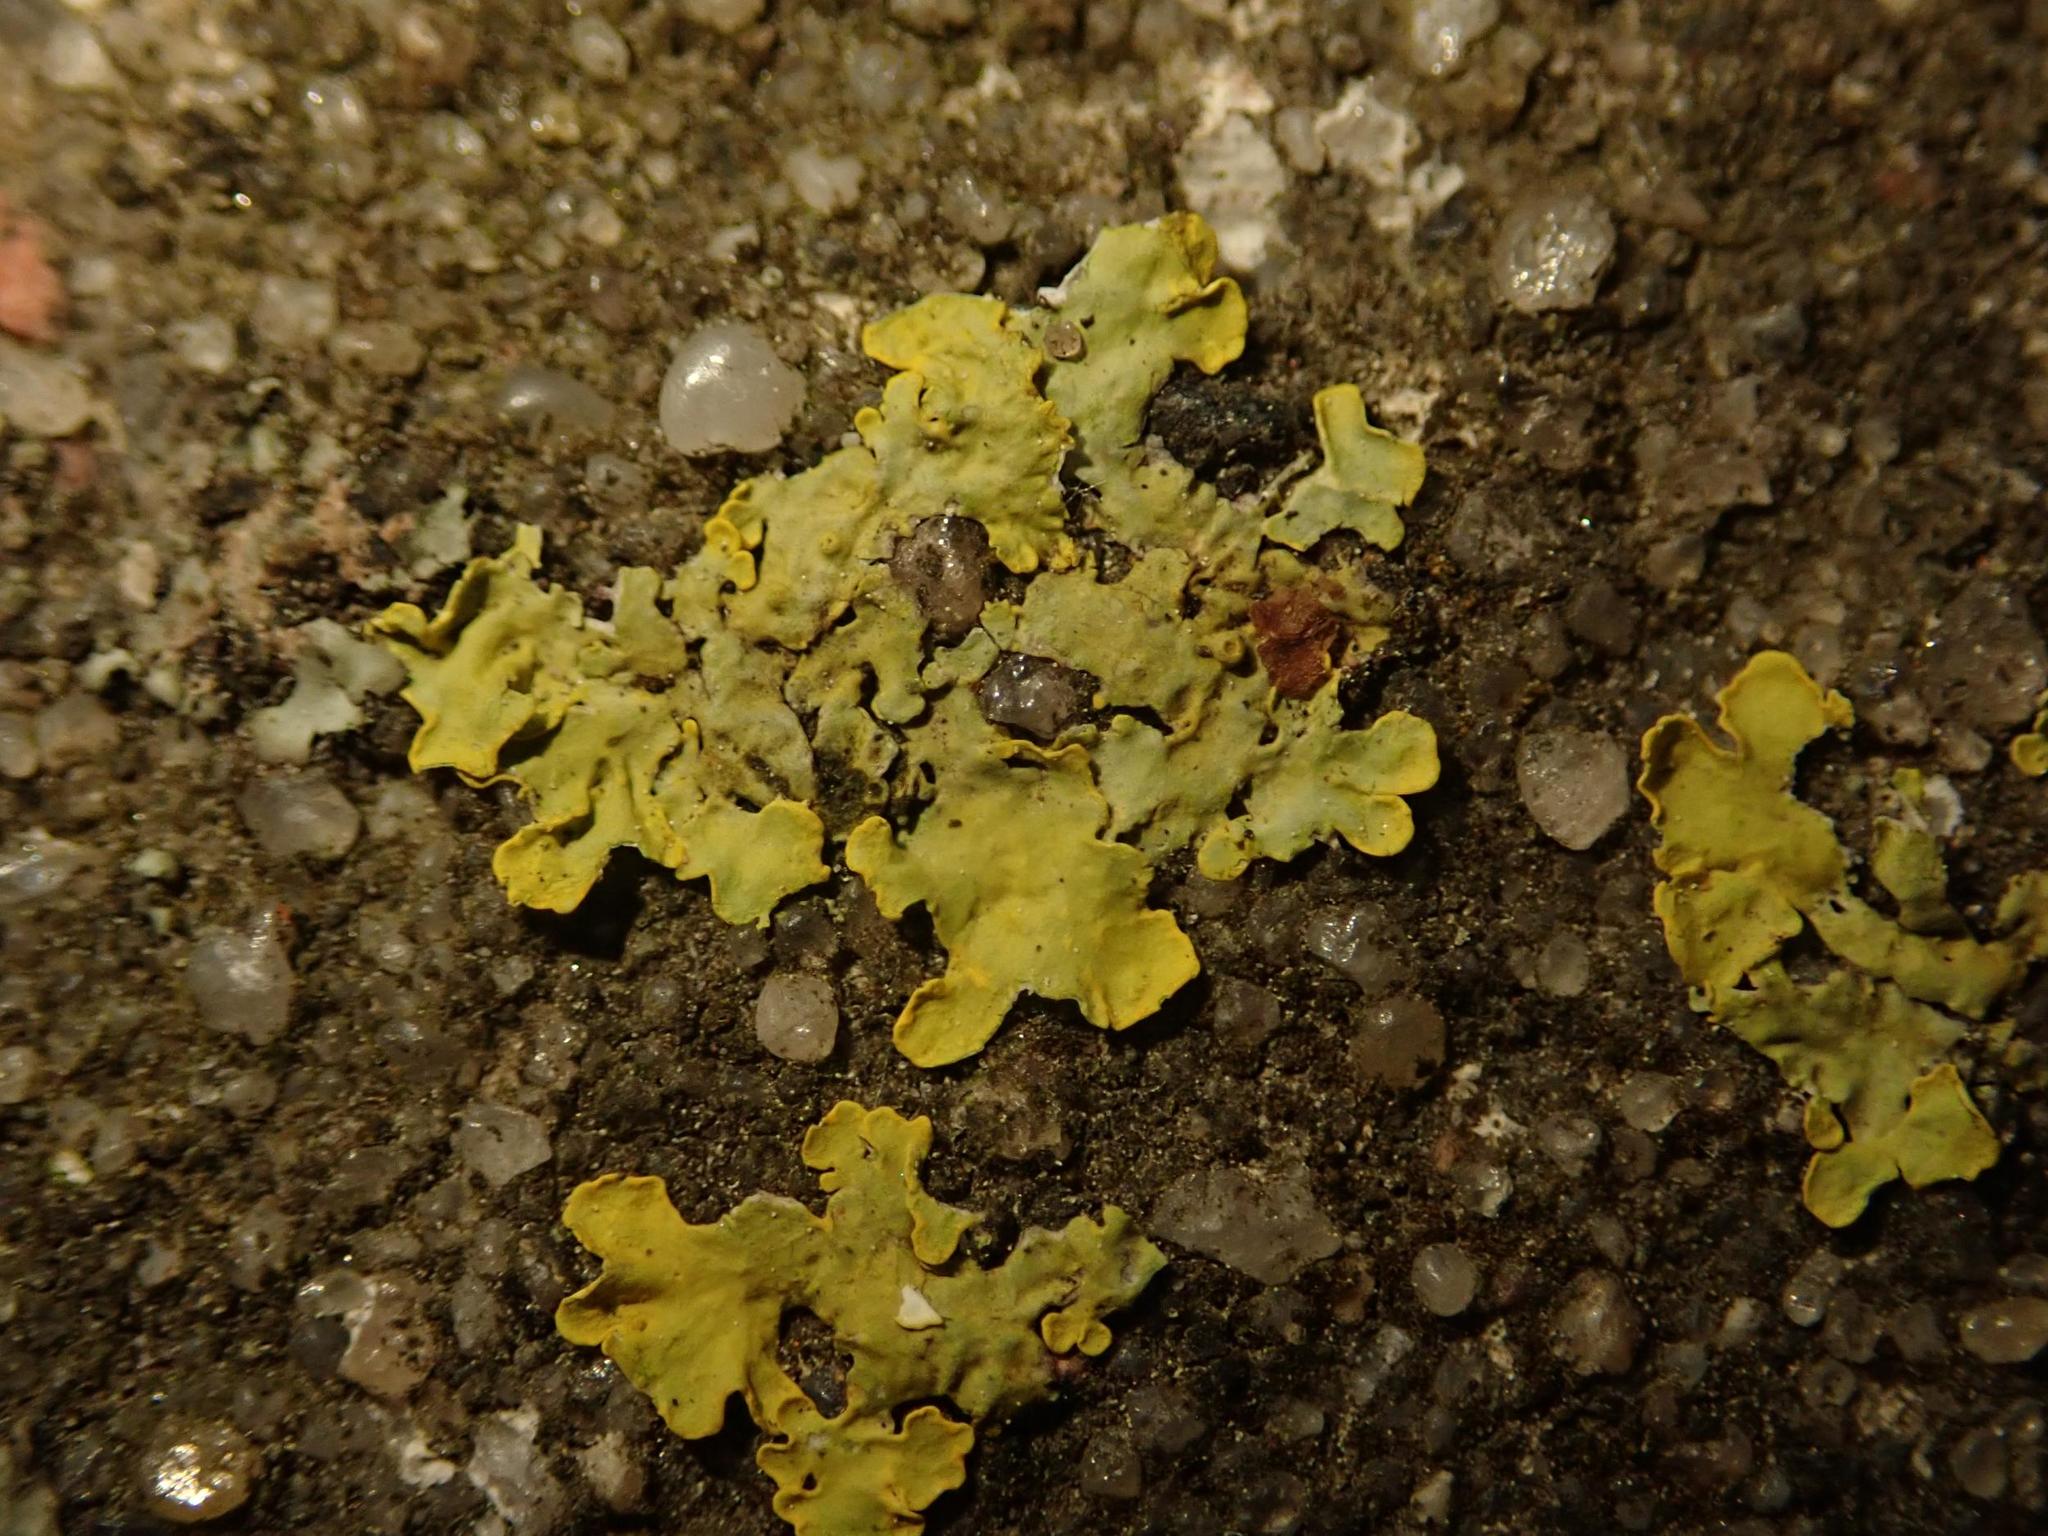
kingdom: Fungi
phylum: Ascomycota
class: Lecanoromycetes
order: Teloschistales
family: Teloschistaceae
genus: Xanthoria
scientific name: Xanthoria parietina
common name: Common orange lichen
